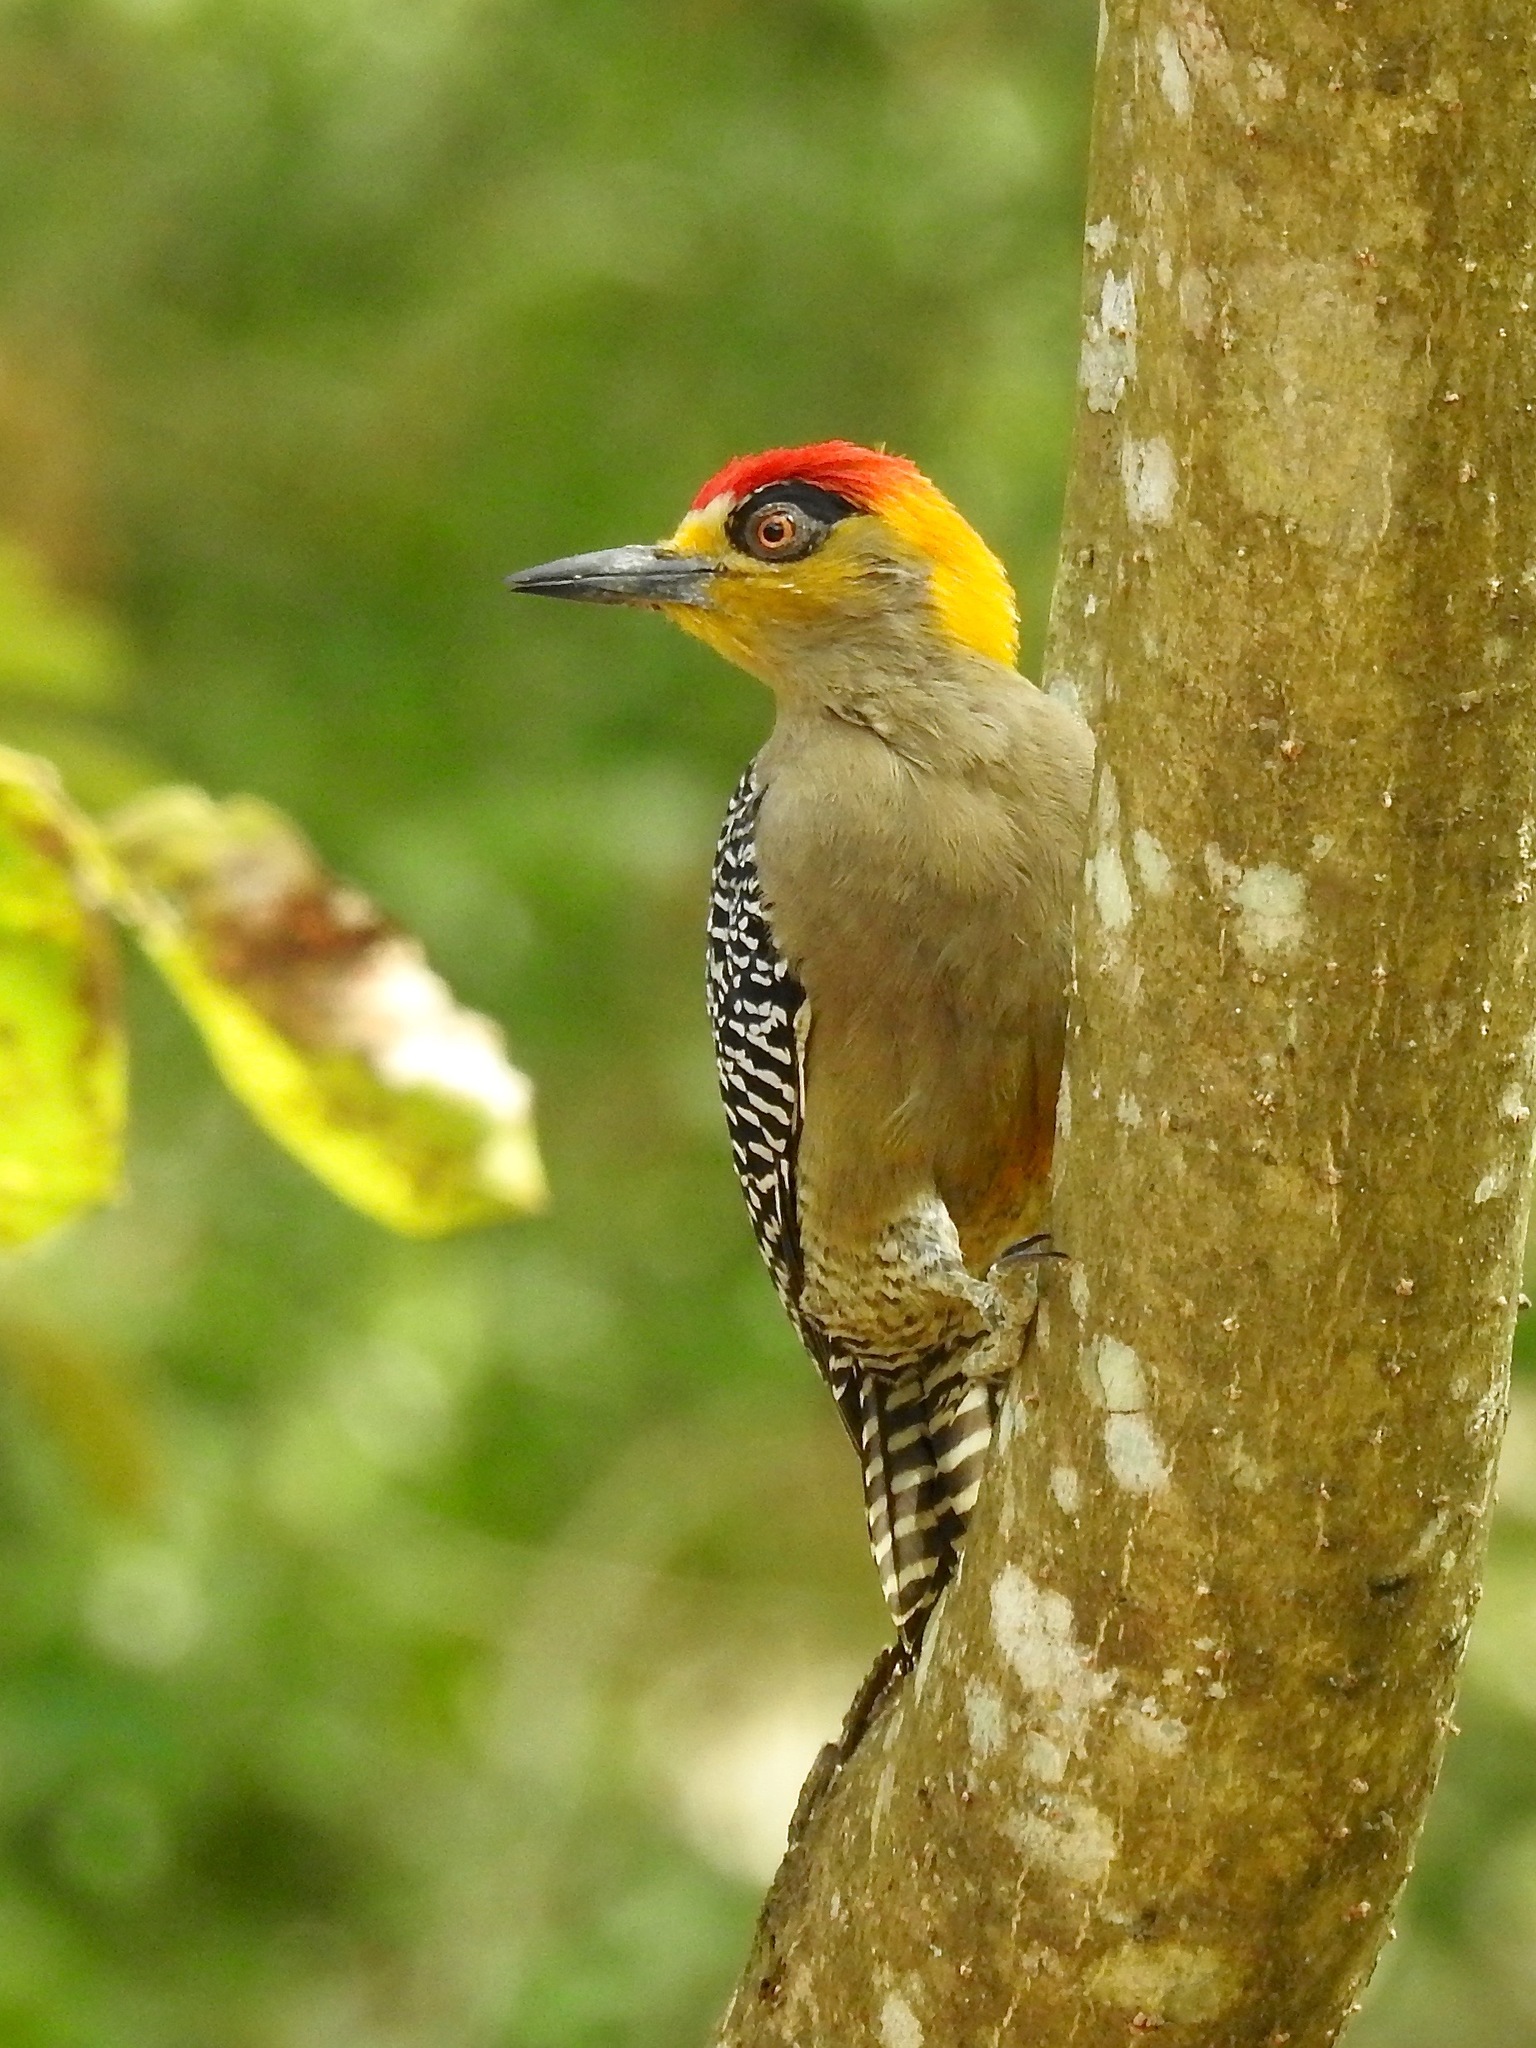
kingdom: Animalia
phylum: Chordata
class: Aves
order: Piciformes
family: Picidae
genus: Melanerpes
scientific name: Melanerpes chrysogenys
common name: Golden-cheeked woodpecker
